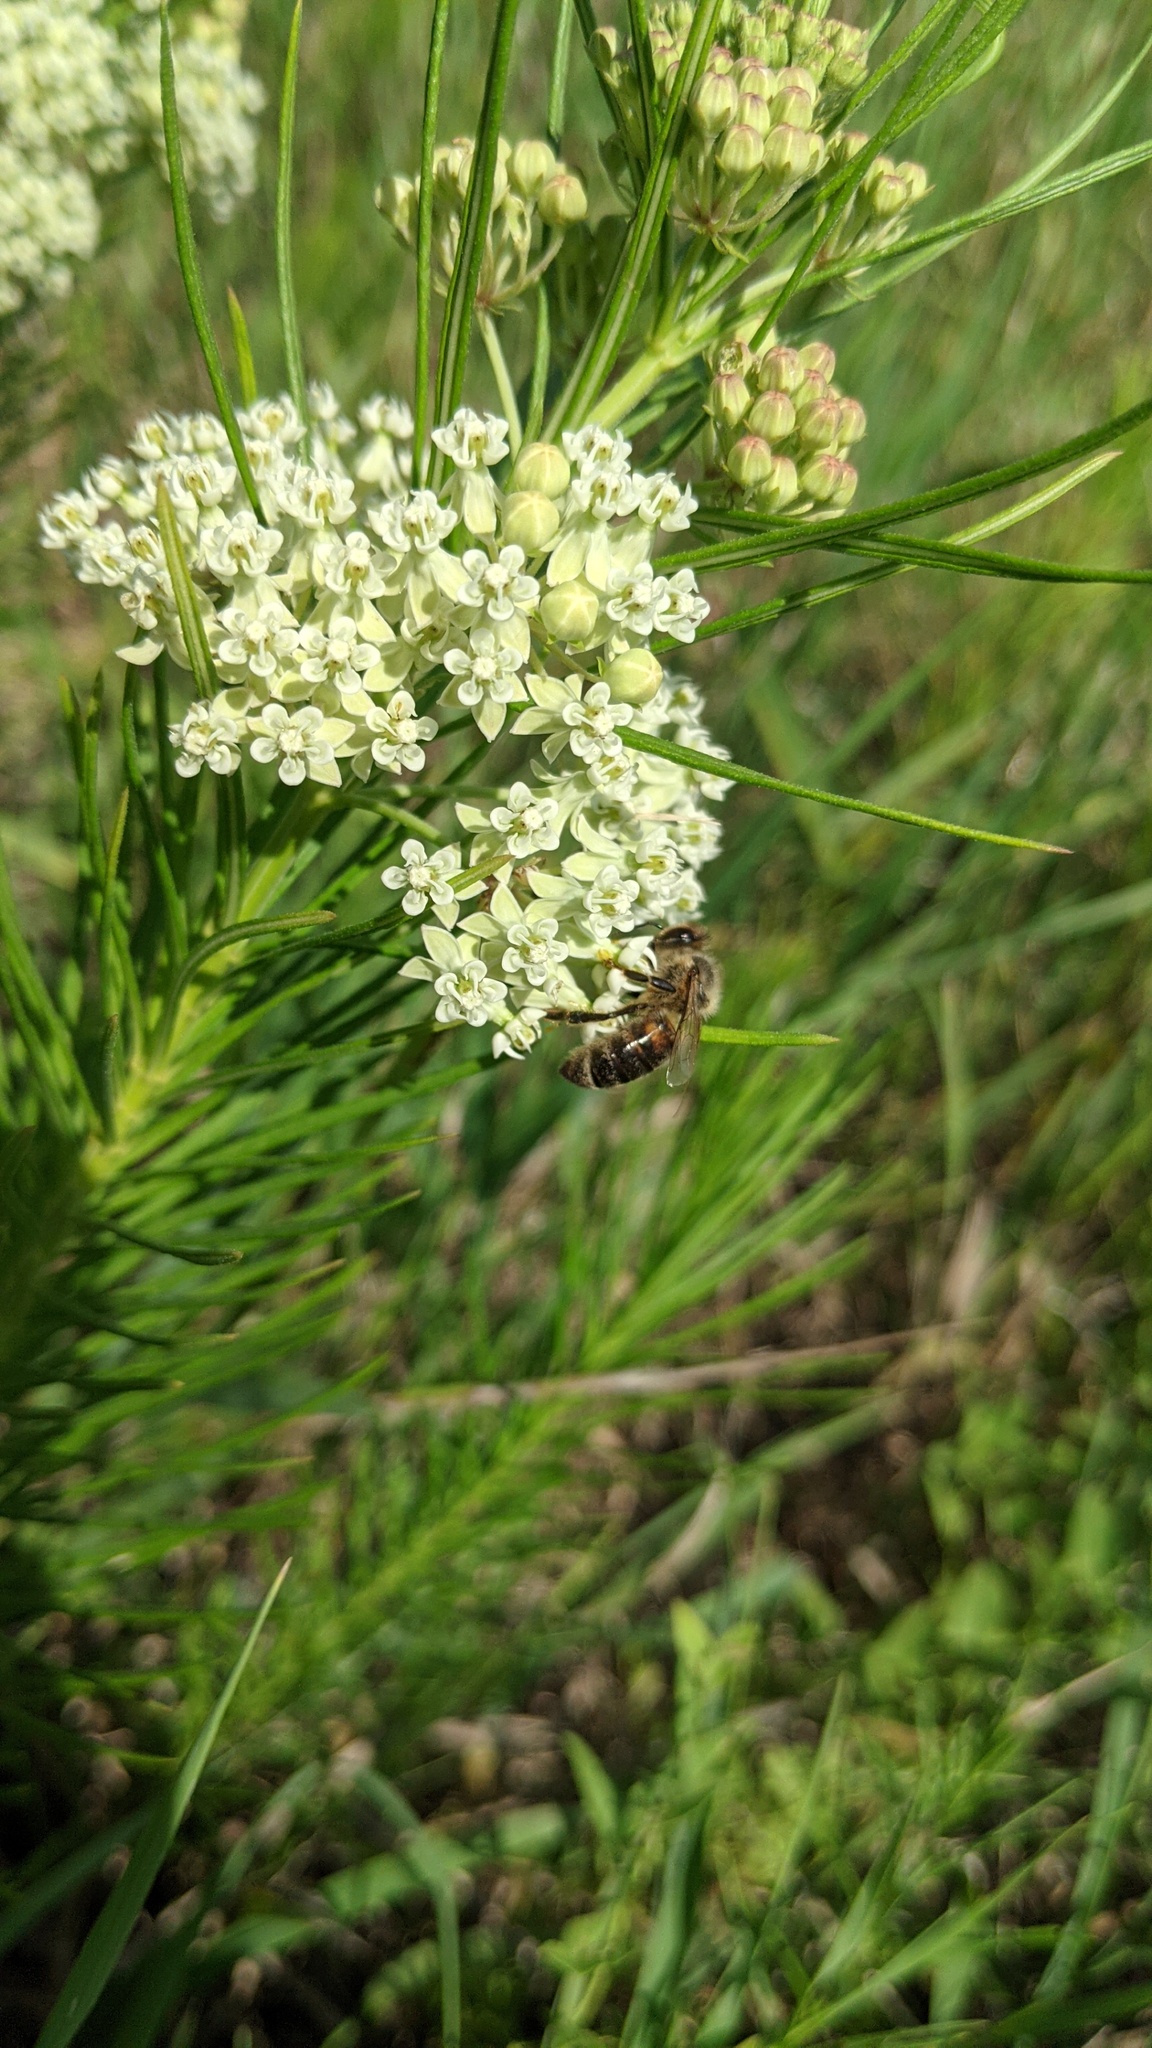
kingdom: Animalia
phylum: Arthropoda
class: Insecta
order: Hymenoptera
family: Apidae
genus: Apis
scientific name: Apis mellifera
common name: Honey bee
